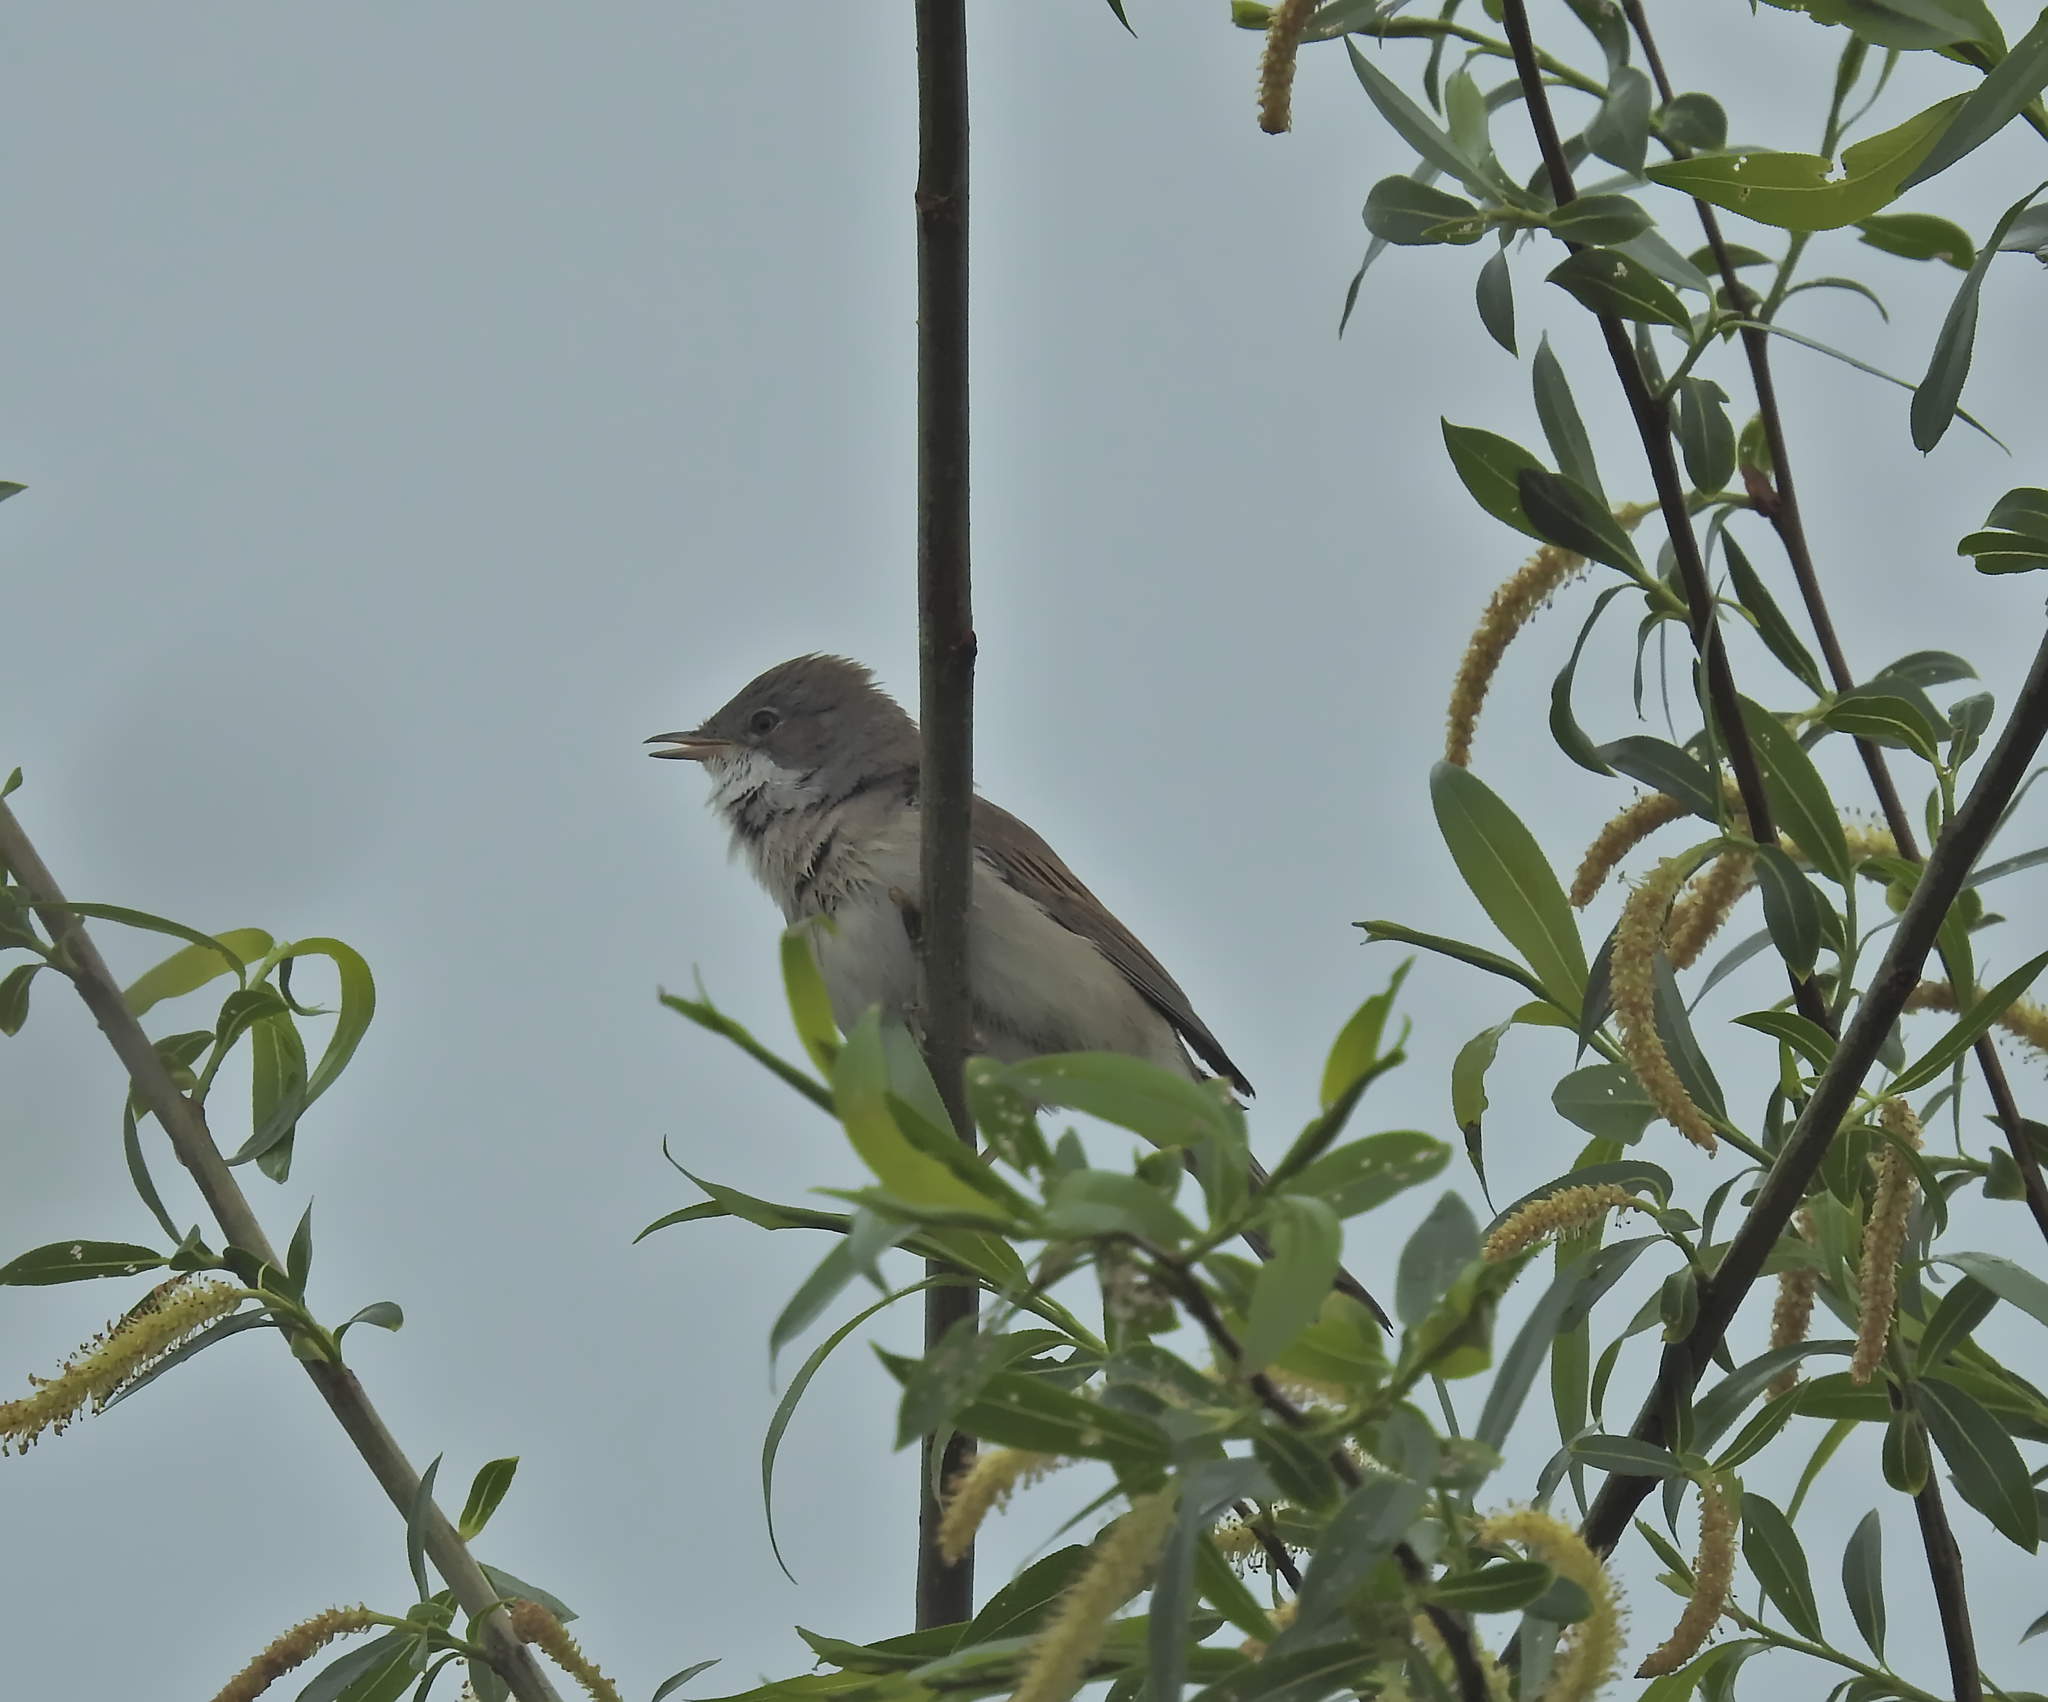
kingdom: Animalia
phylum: Chordata
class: Aves
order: Passeriformes
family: Sylviidae
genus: Sylvia
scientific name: Sylvia communis
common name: Common whitethroat
